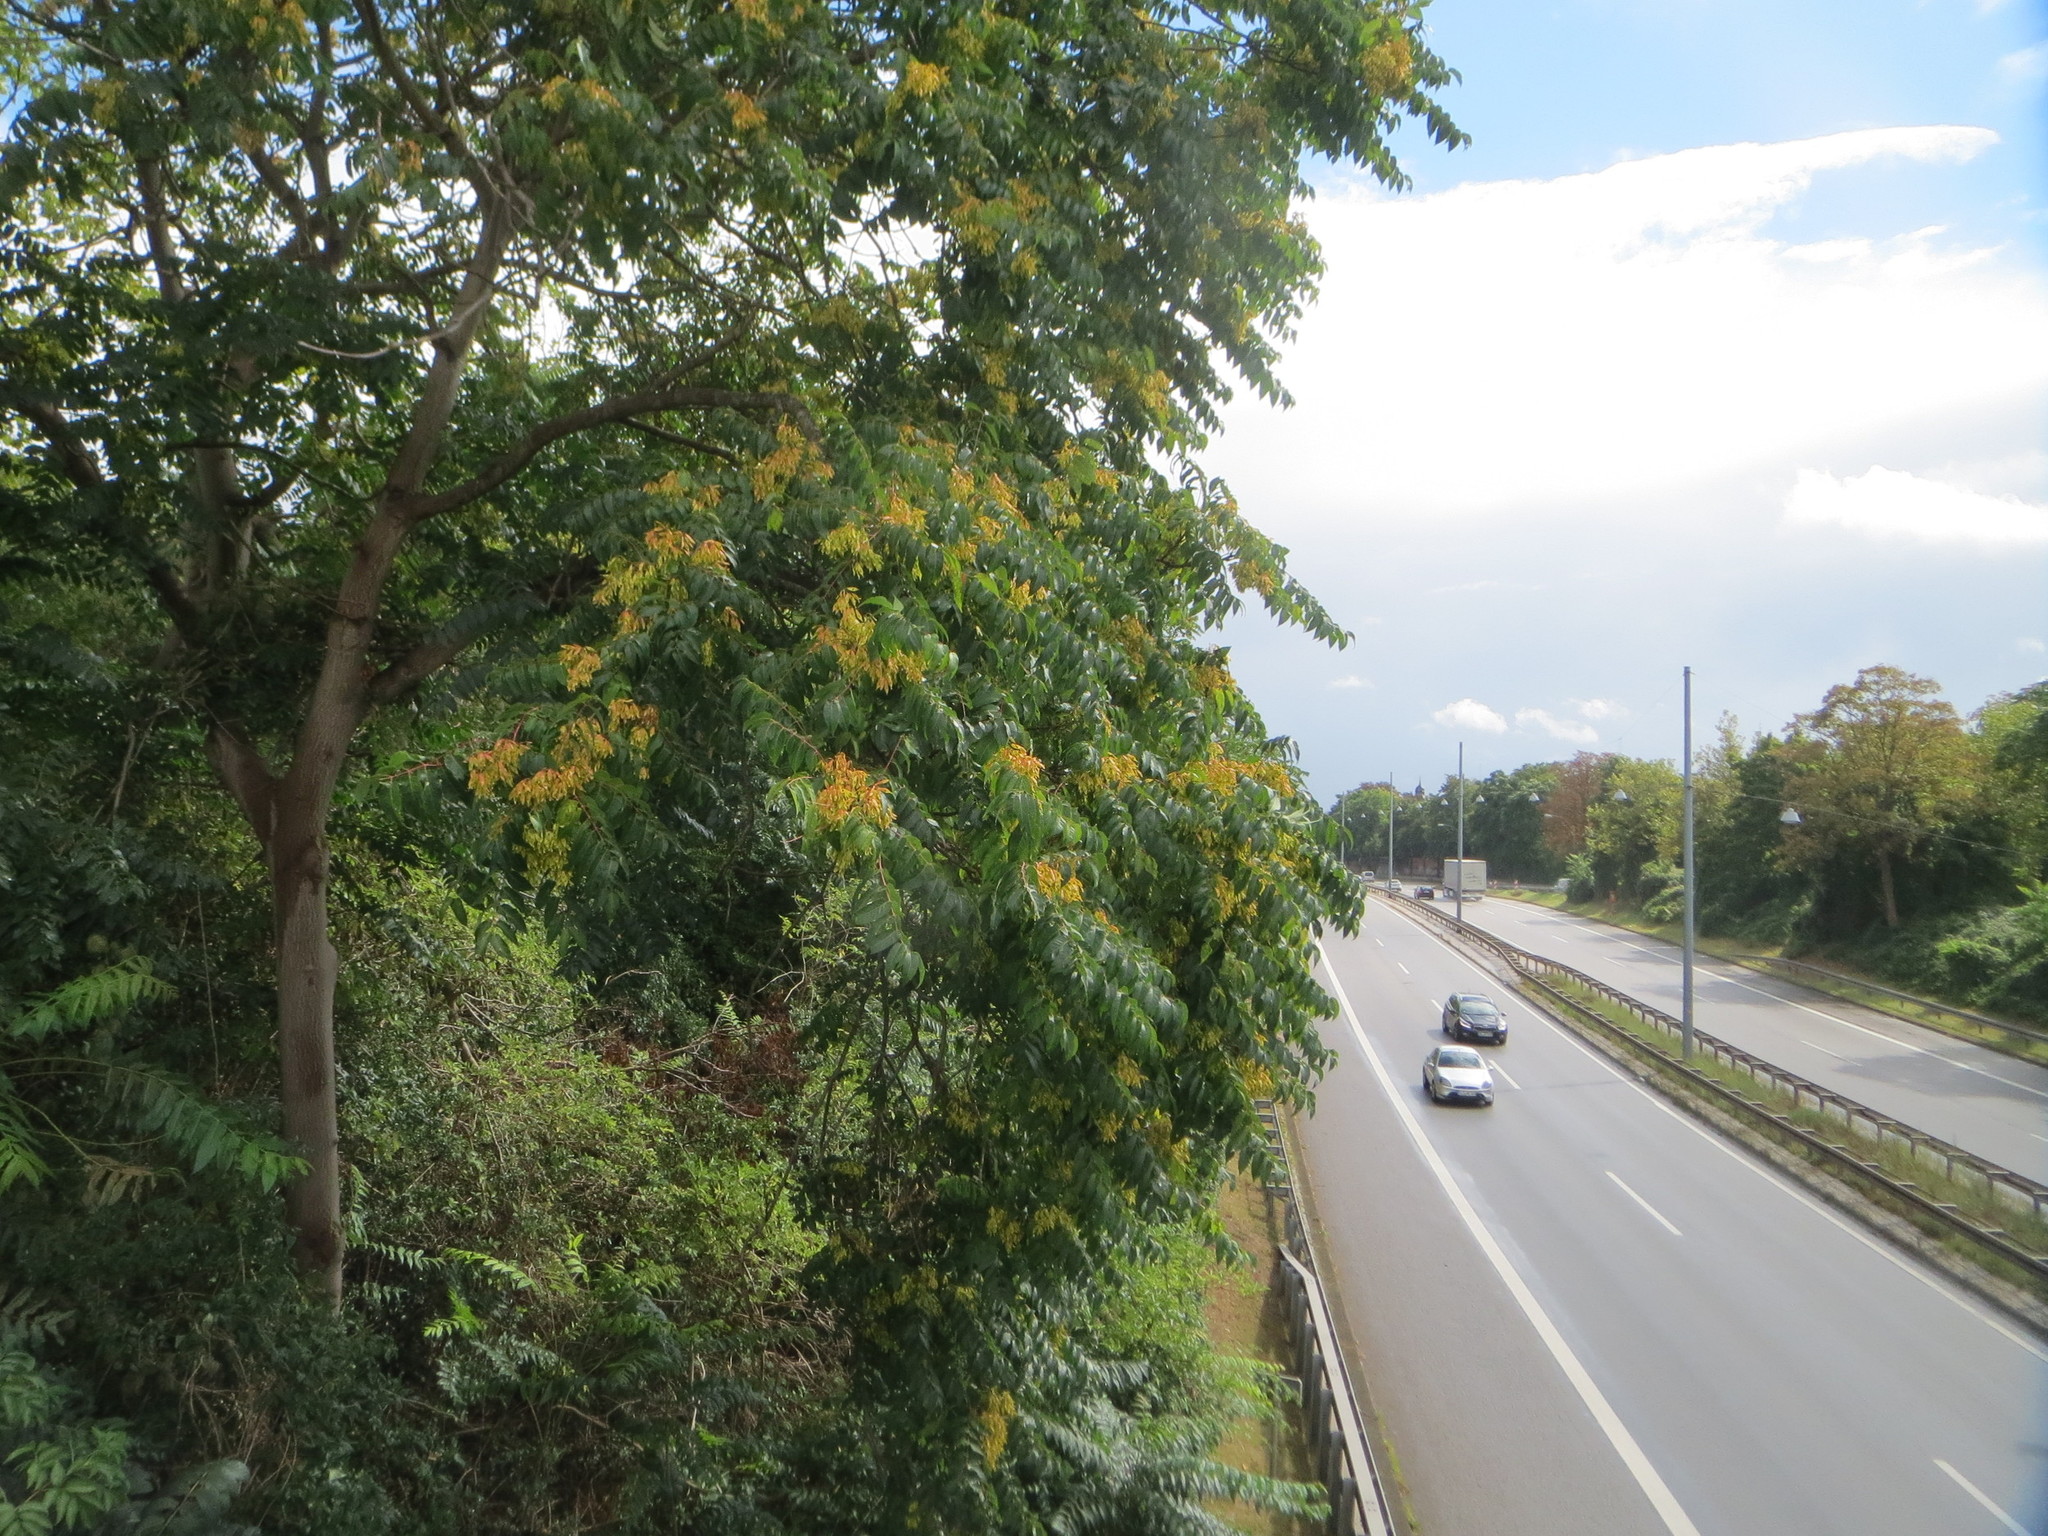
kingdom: Plantae
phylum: Tracheophyta
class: Magnoliopsida
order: Sapindales
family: Simaroubaceae
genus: Ailanthus
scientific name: Ailanthus altissima
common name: Tree-of-heaven
